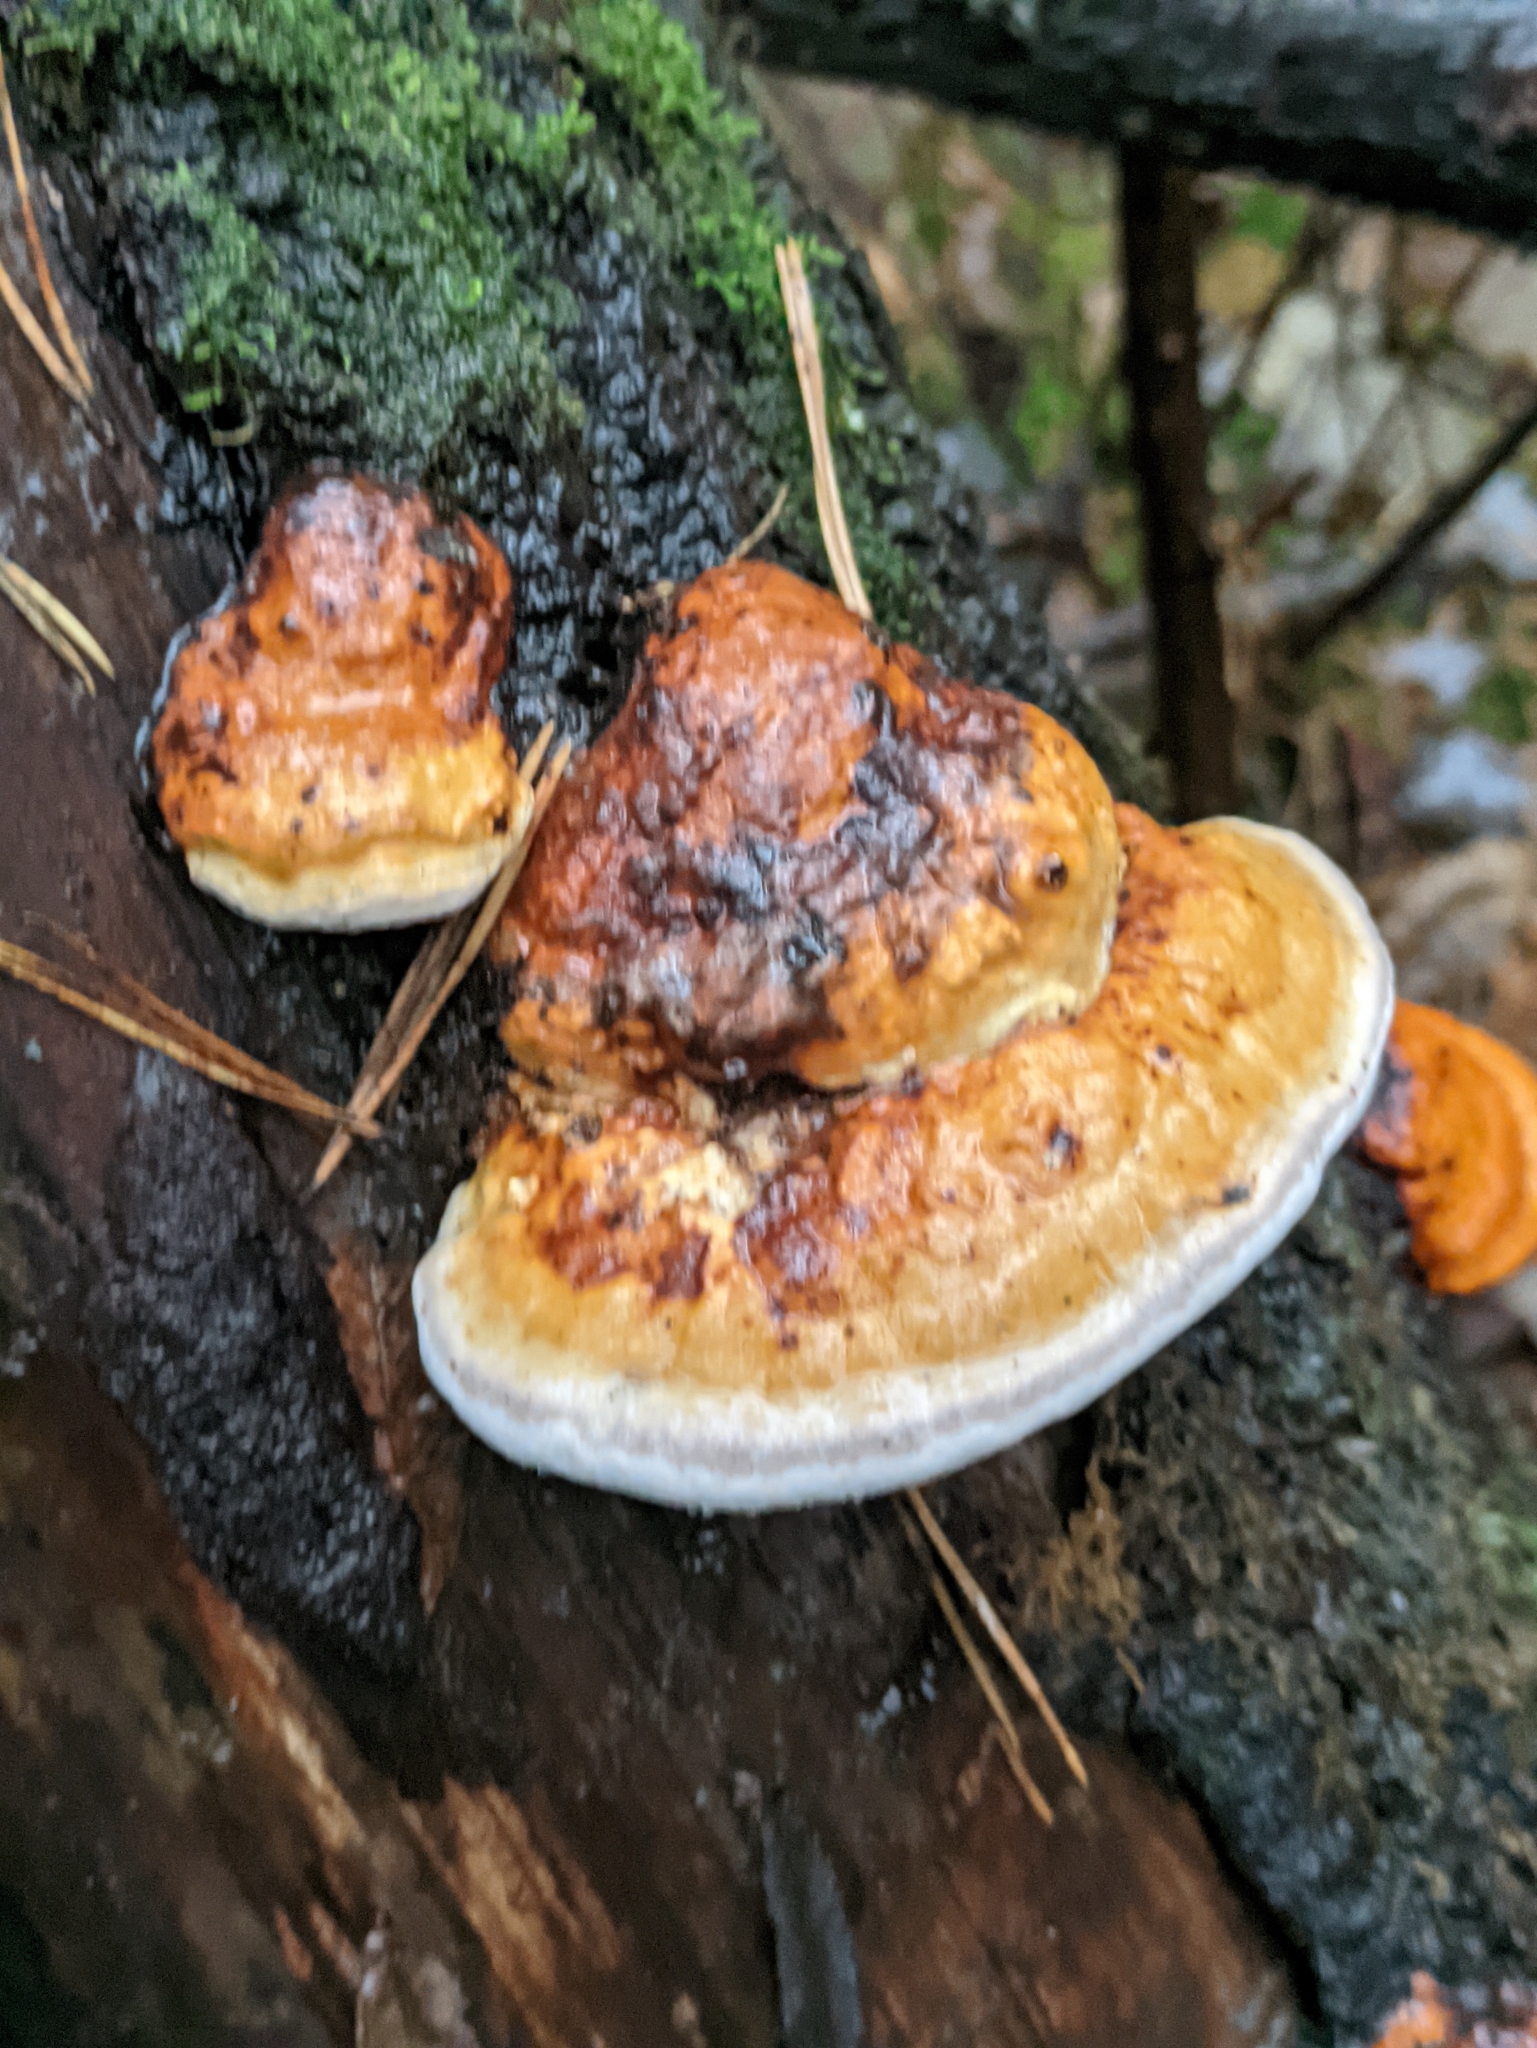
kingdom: Fungi
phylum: Basidiomycota
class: Agaricomycetes
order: Polyporales
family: Fomitopsidaceae
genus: Fomitopsis
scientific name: Fomitopsis pinicola
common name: Red-belted bracket
